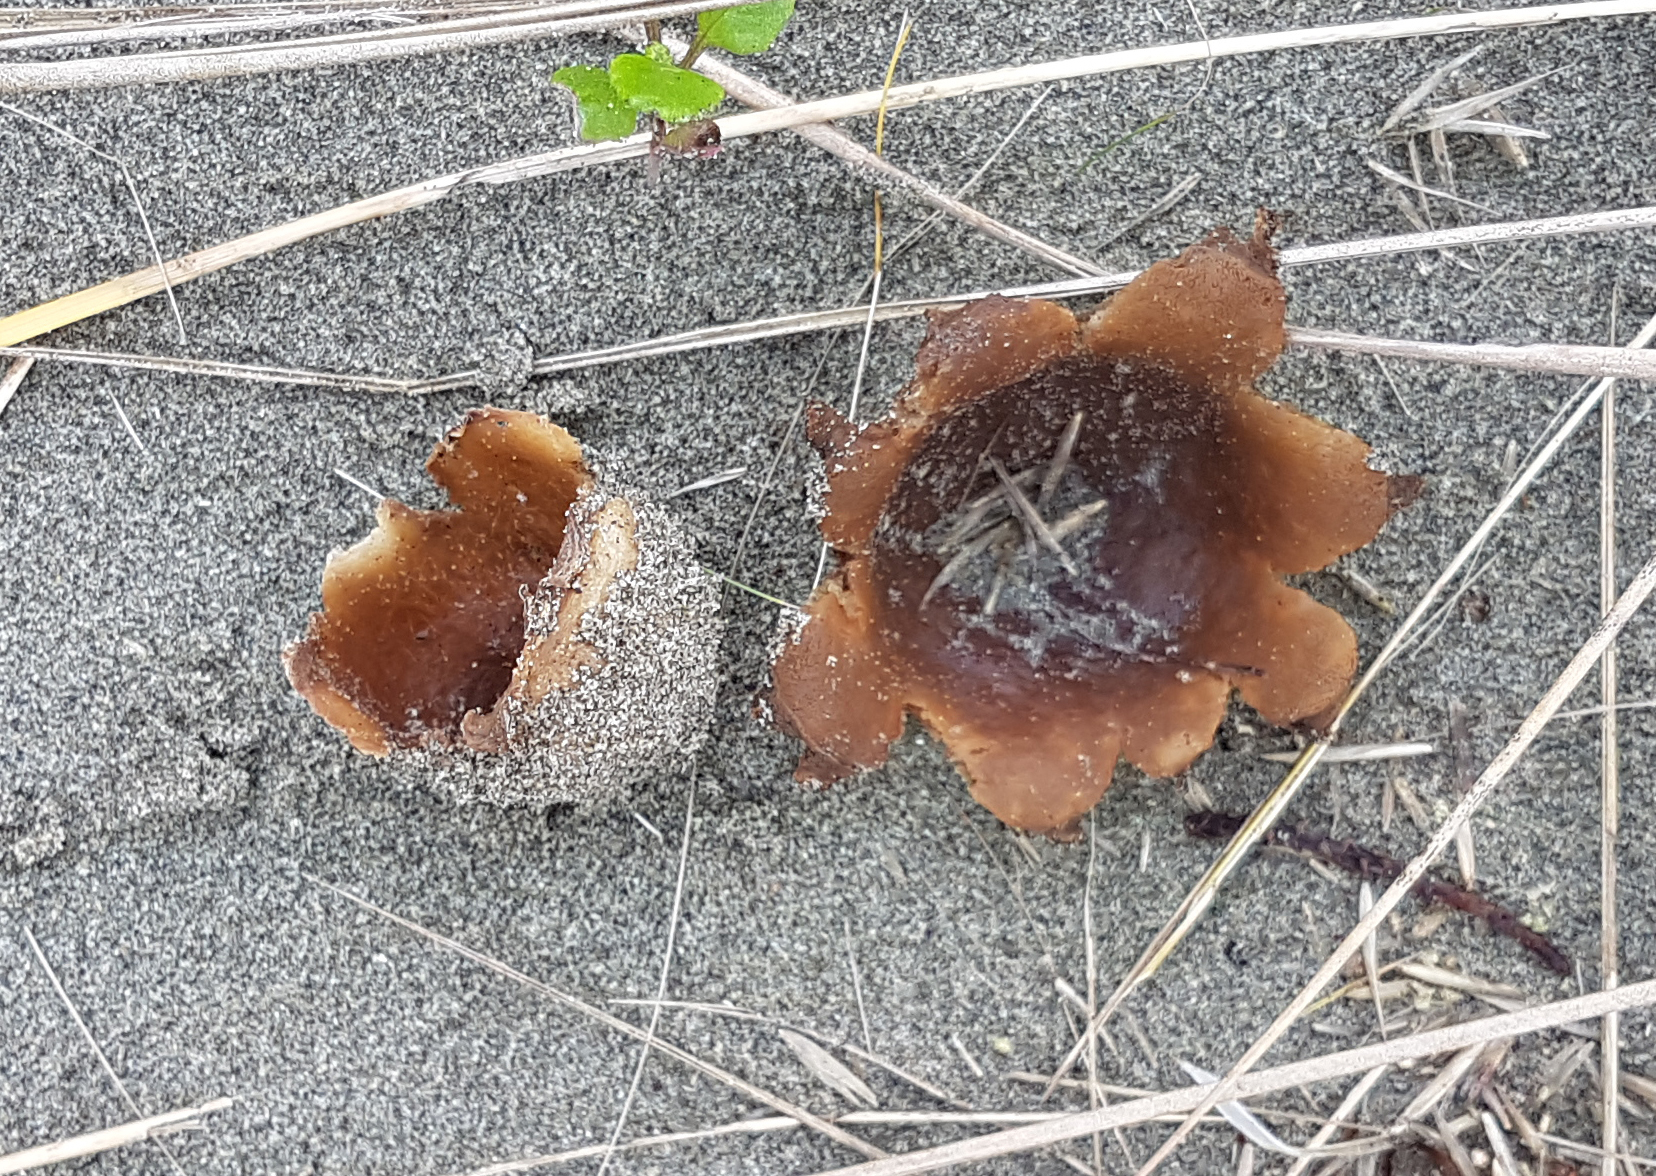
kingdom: Fungi
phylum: Ascomycota
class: Pezizomycetes
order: Pezizales
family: Pezizaceae
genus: Peziza
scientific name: Peziza oceanica
